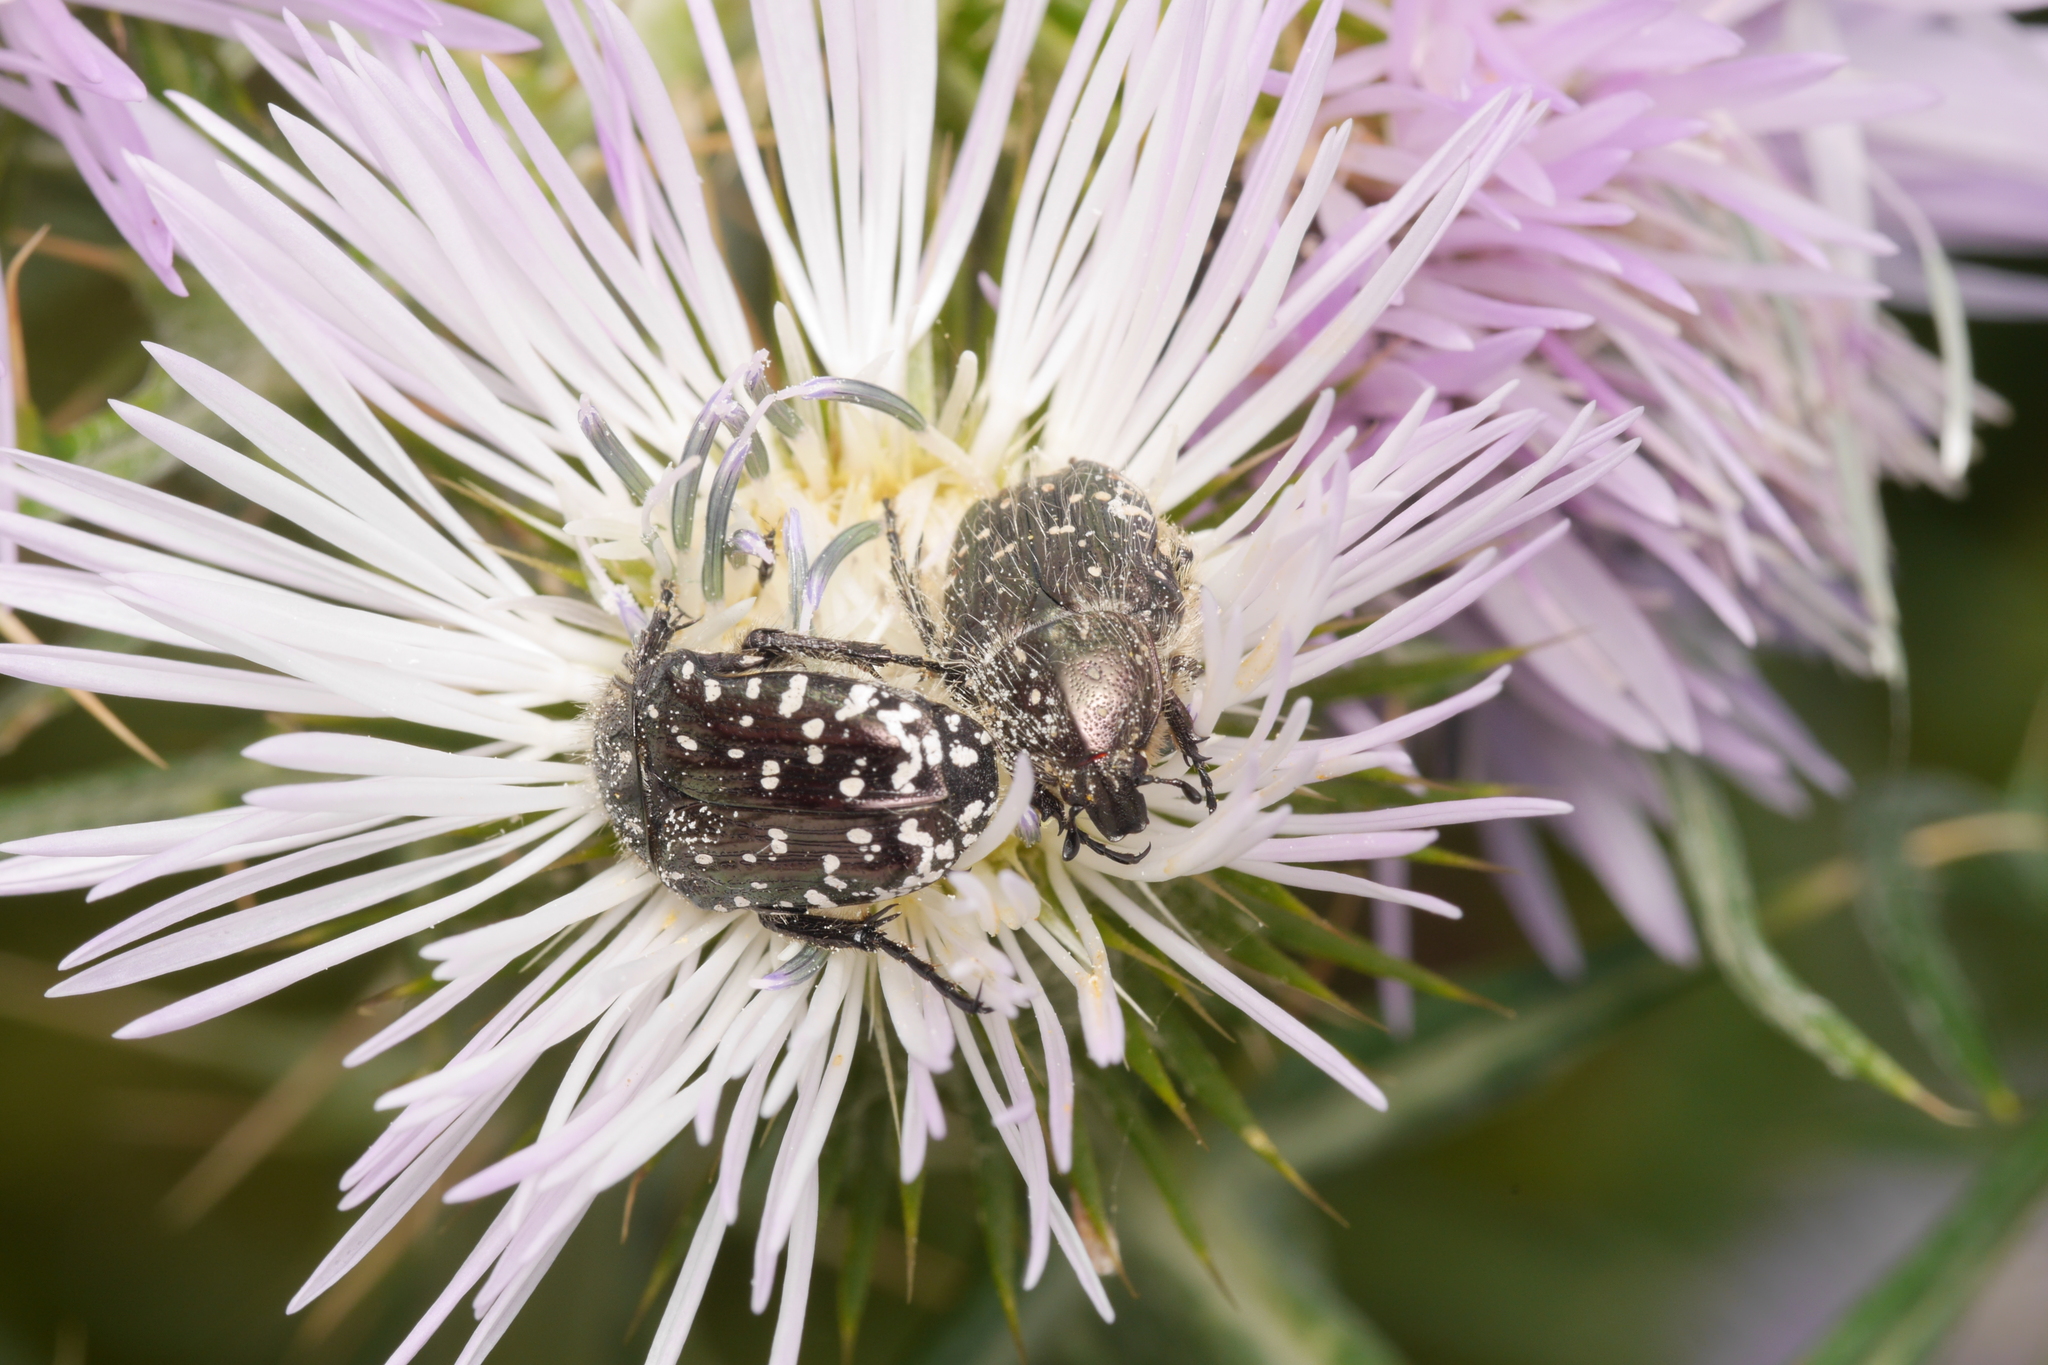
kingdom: Animalia
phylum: Arthropoda
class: Insecta
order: Coleoptera
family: Scarabaeidae
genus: Oxythyrea
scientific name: Oxythyrea funesta
